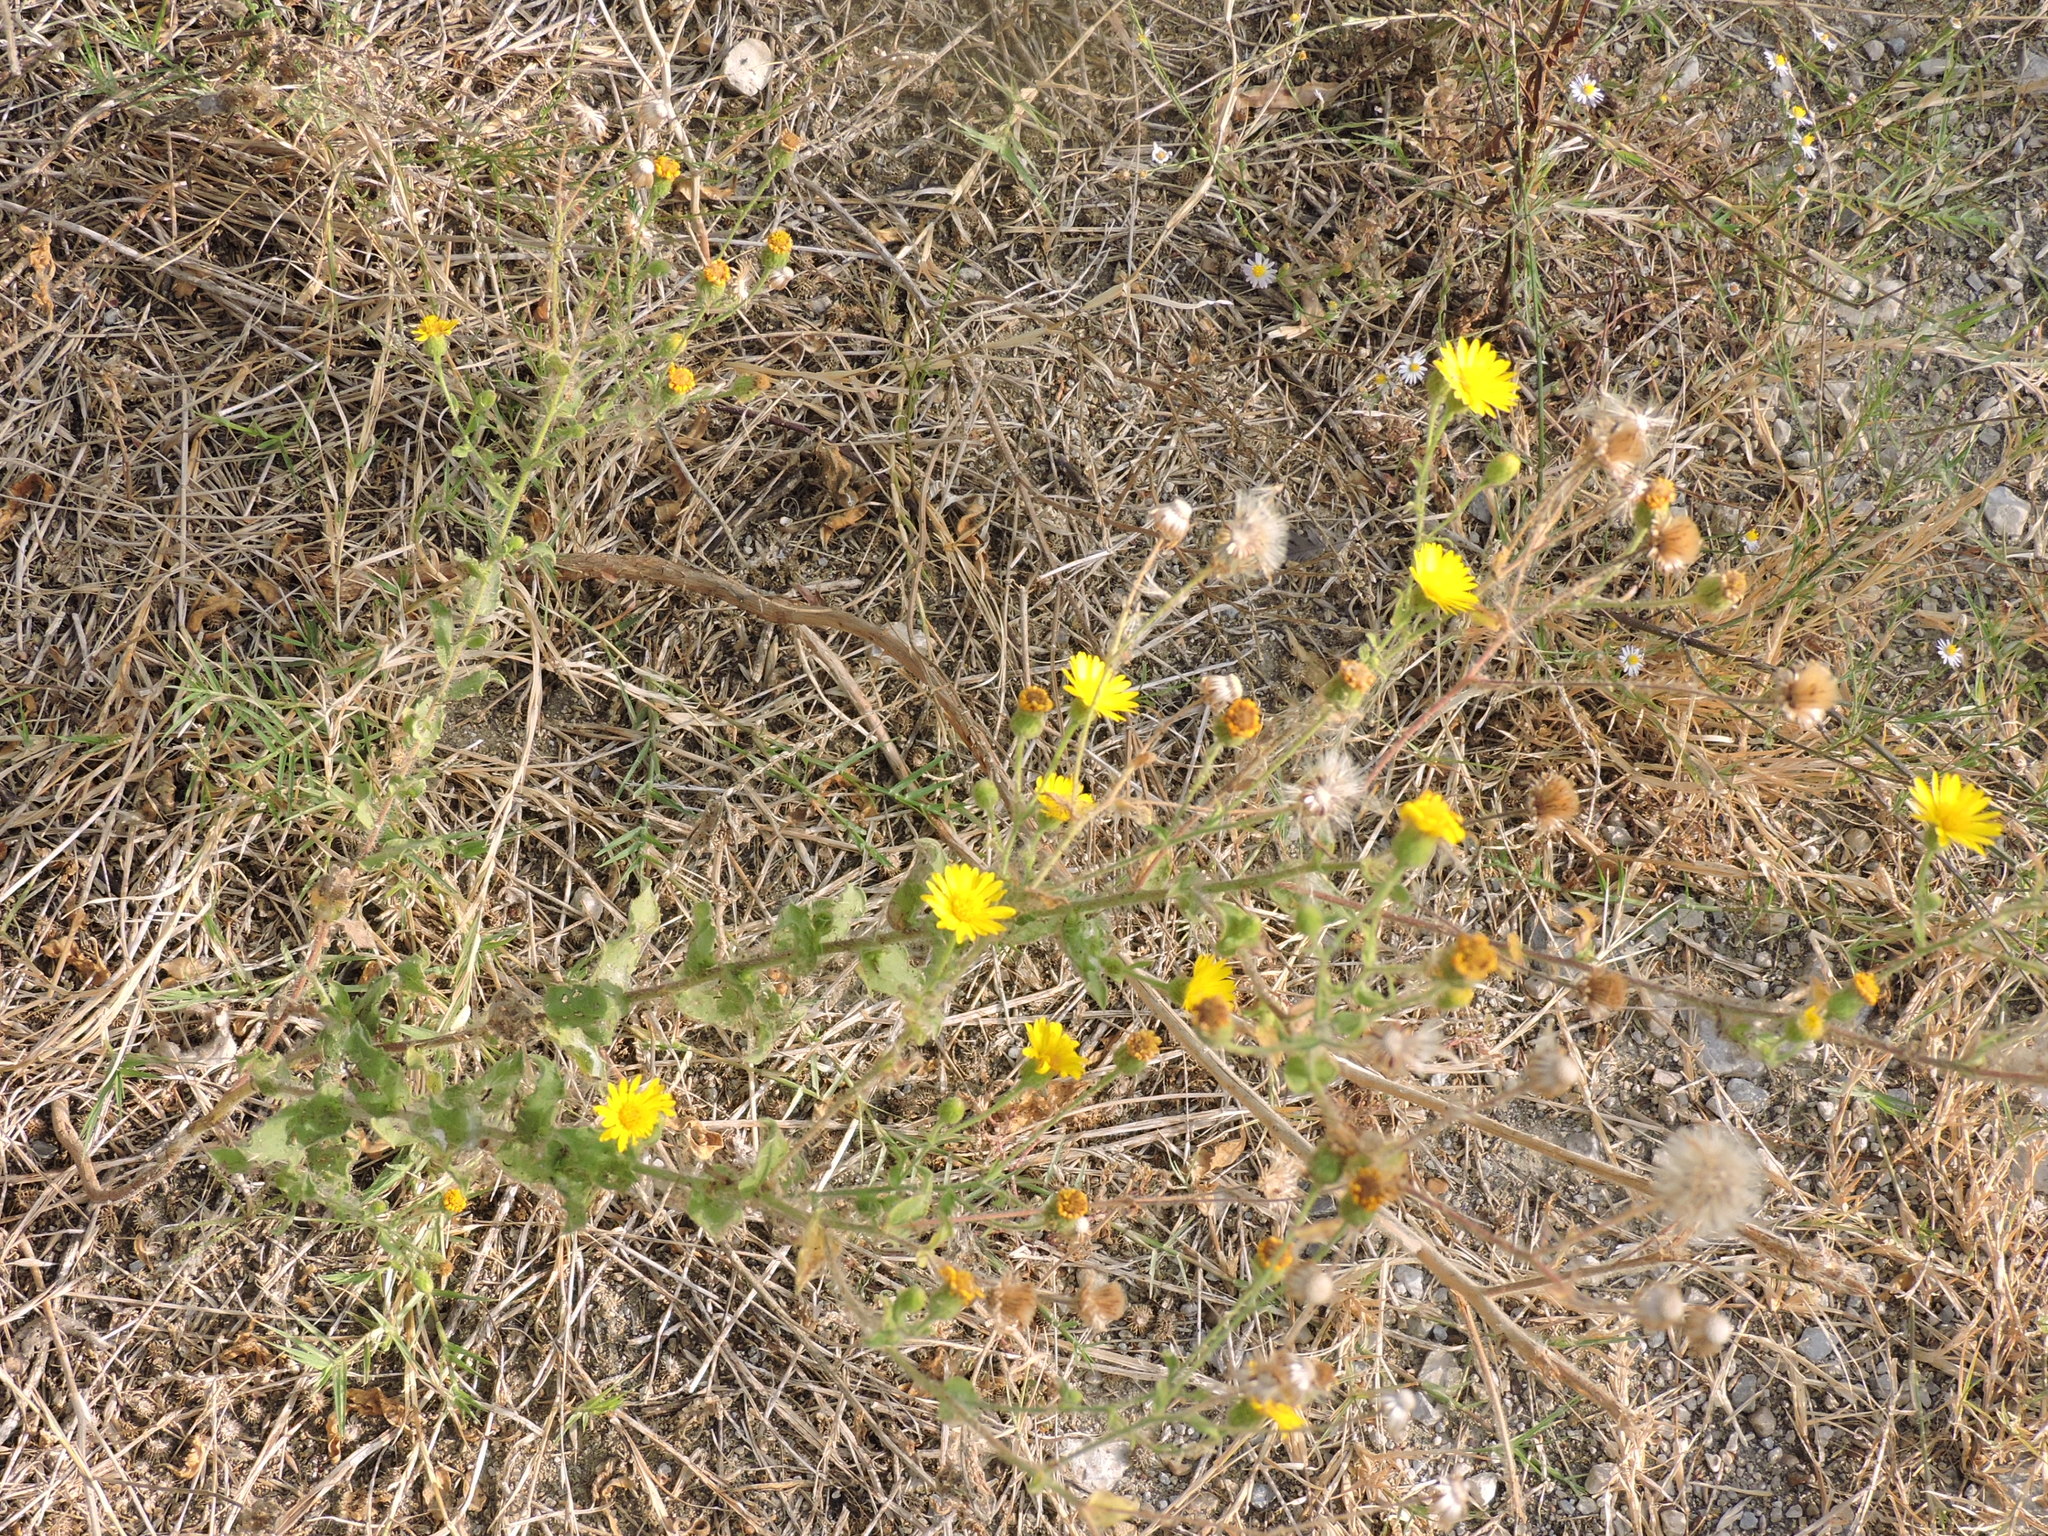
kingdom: Plantae
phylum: Tracheophyta
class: Magnoliopsida
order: Asterales
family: Asteraceae
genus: Heterotheca
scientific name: Heterotheca subaxillaris
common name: Camphorweed
